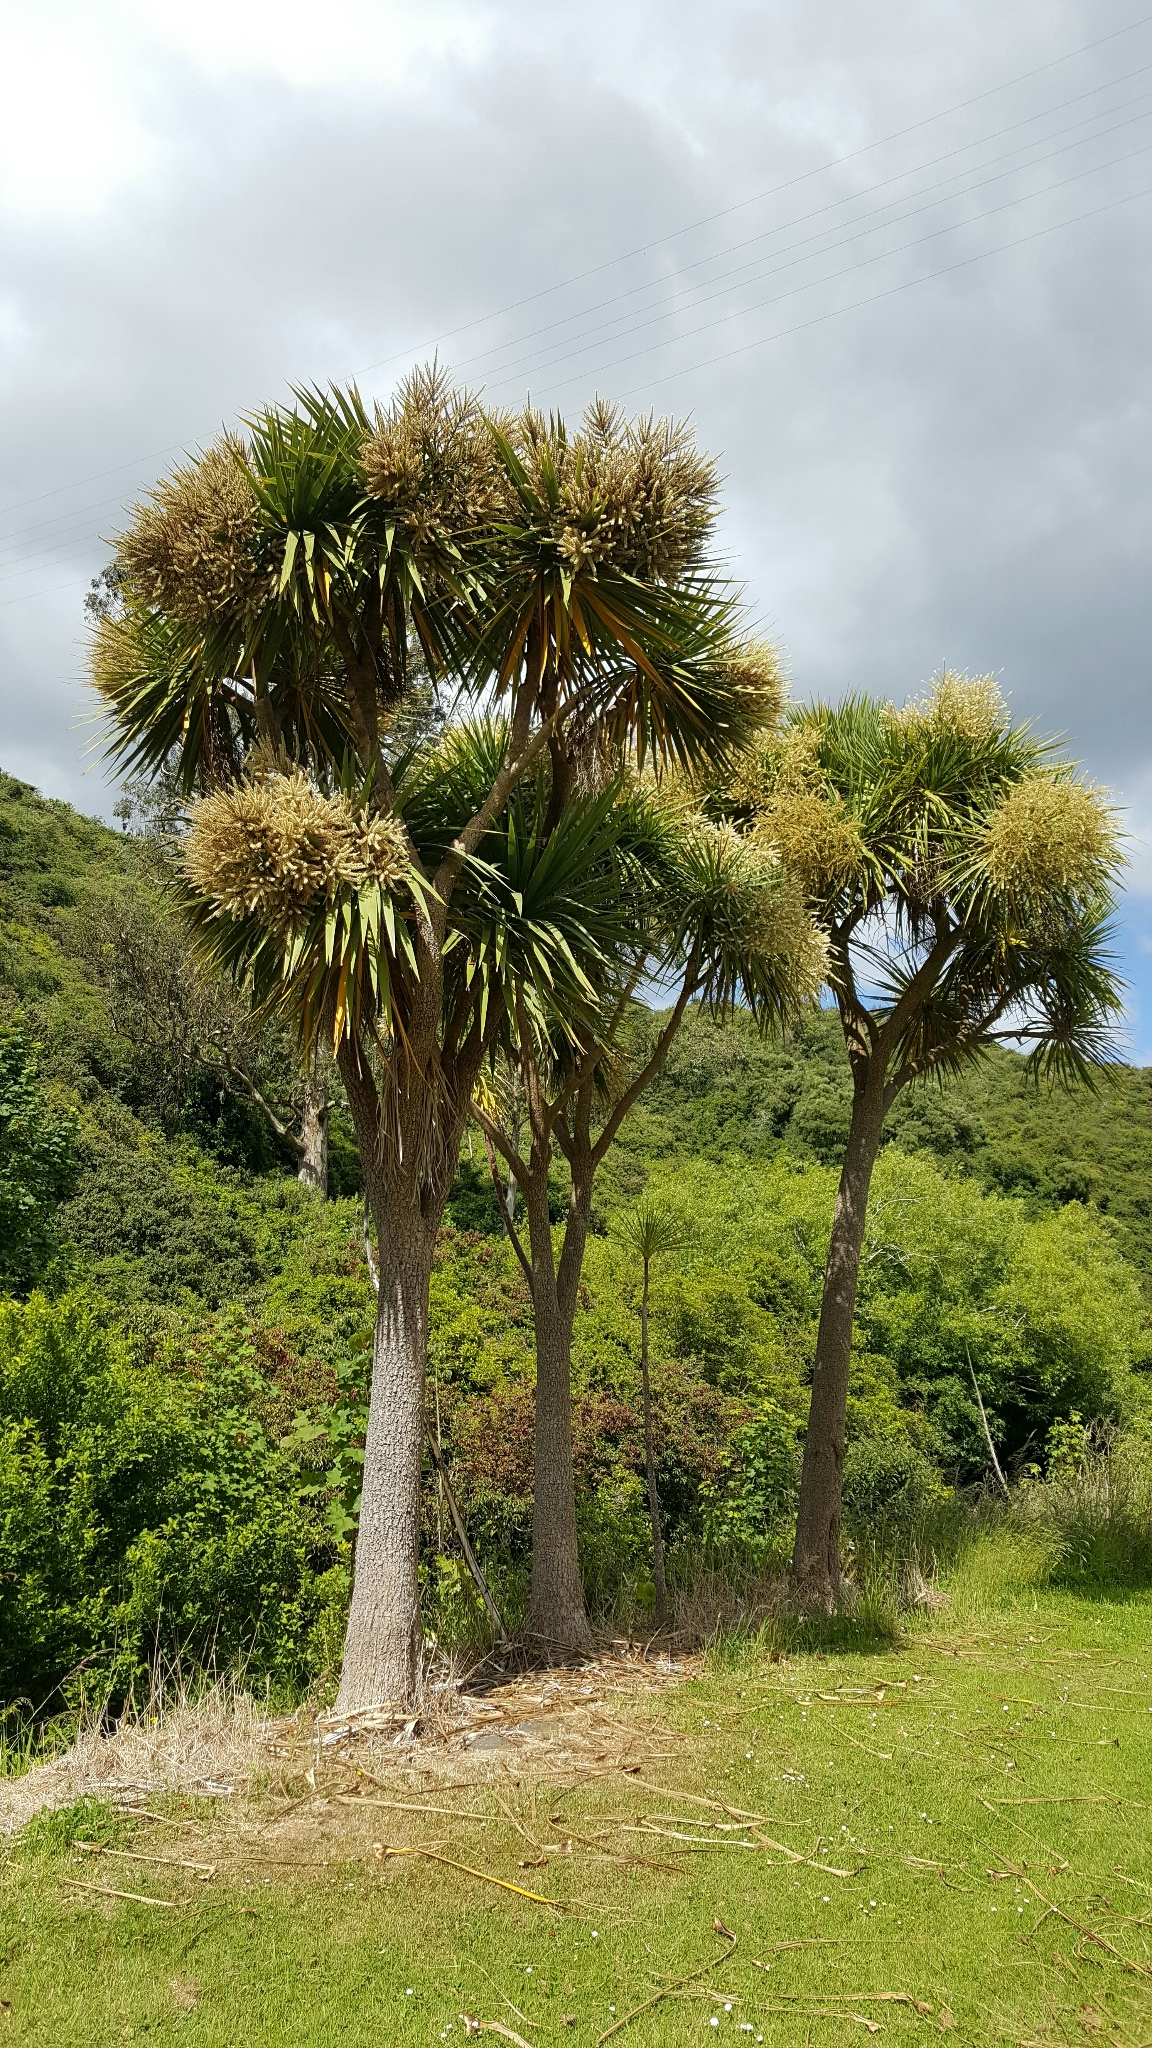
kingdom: Plantae
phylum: Tracheophyta
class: Liliopsida
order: Asparagales
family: Asparagaceae
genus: Cordyline
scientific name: Cordyline australis
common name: Cabbage-palm
